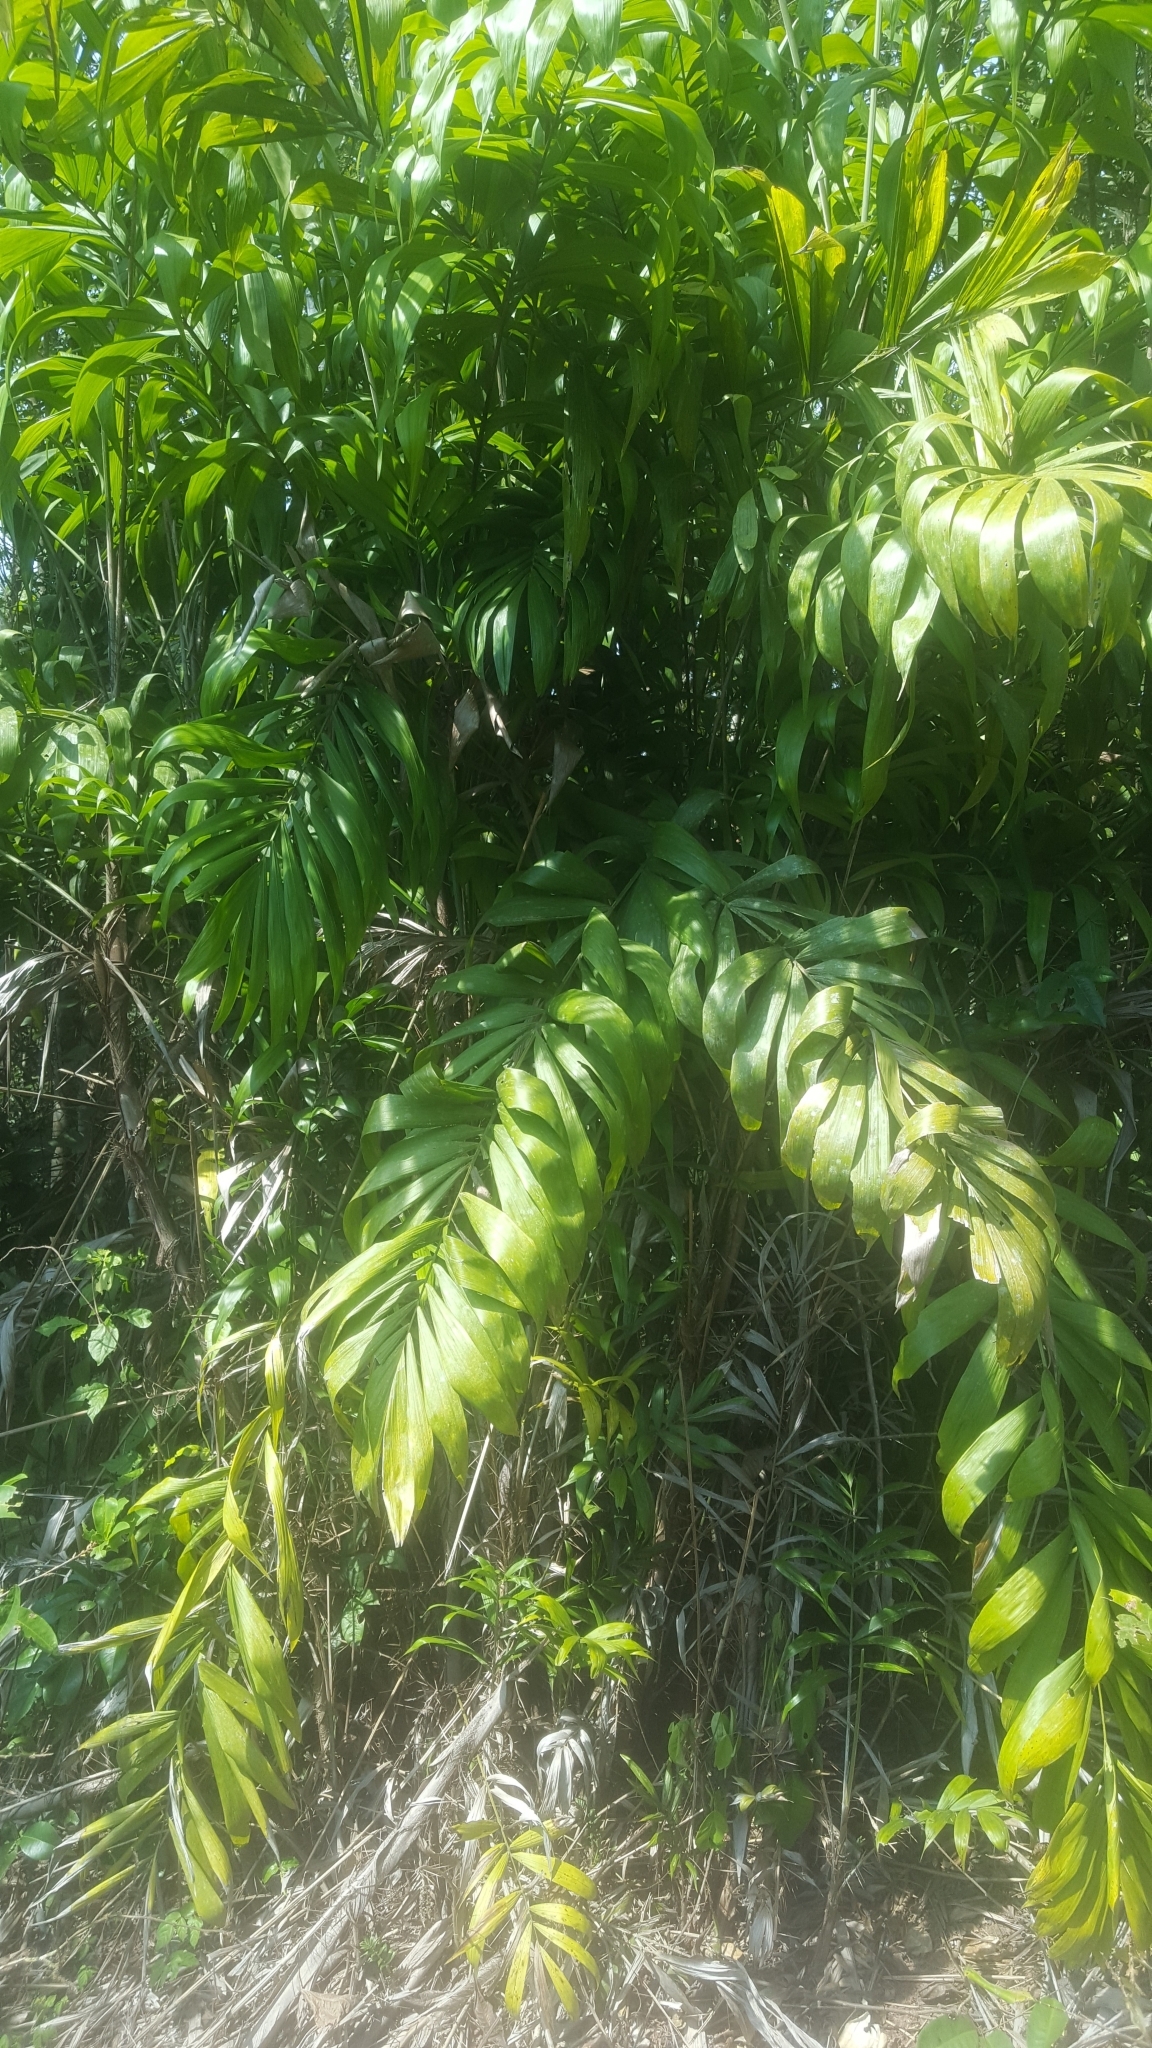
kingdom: Plantae
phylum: Tracheophyta
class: Liliopsida
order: Arecales
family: Arecaceae
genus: Bactris
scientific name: Bactris brongniartii
